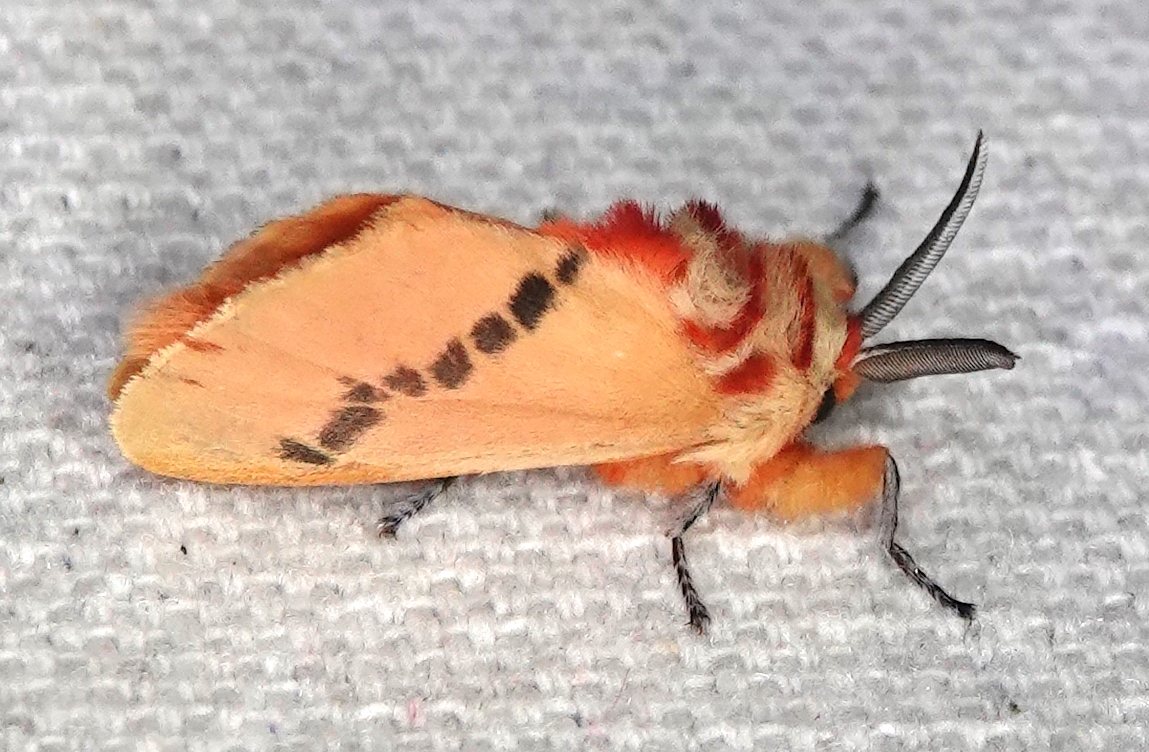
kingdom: Animalia
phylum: Arthropoda
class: Insecta
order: Lepidoptera
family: Megalopygidae
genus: Trosia
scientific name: Trosia tolimata
